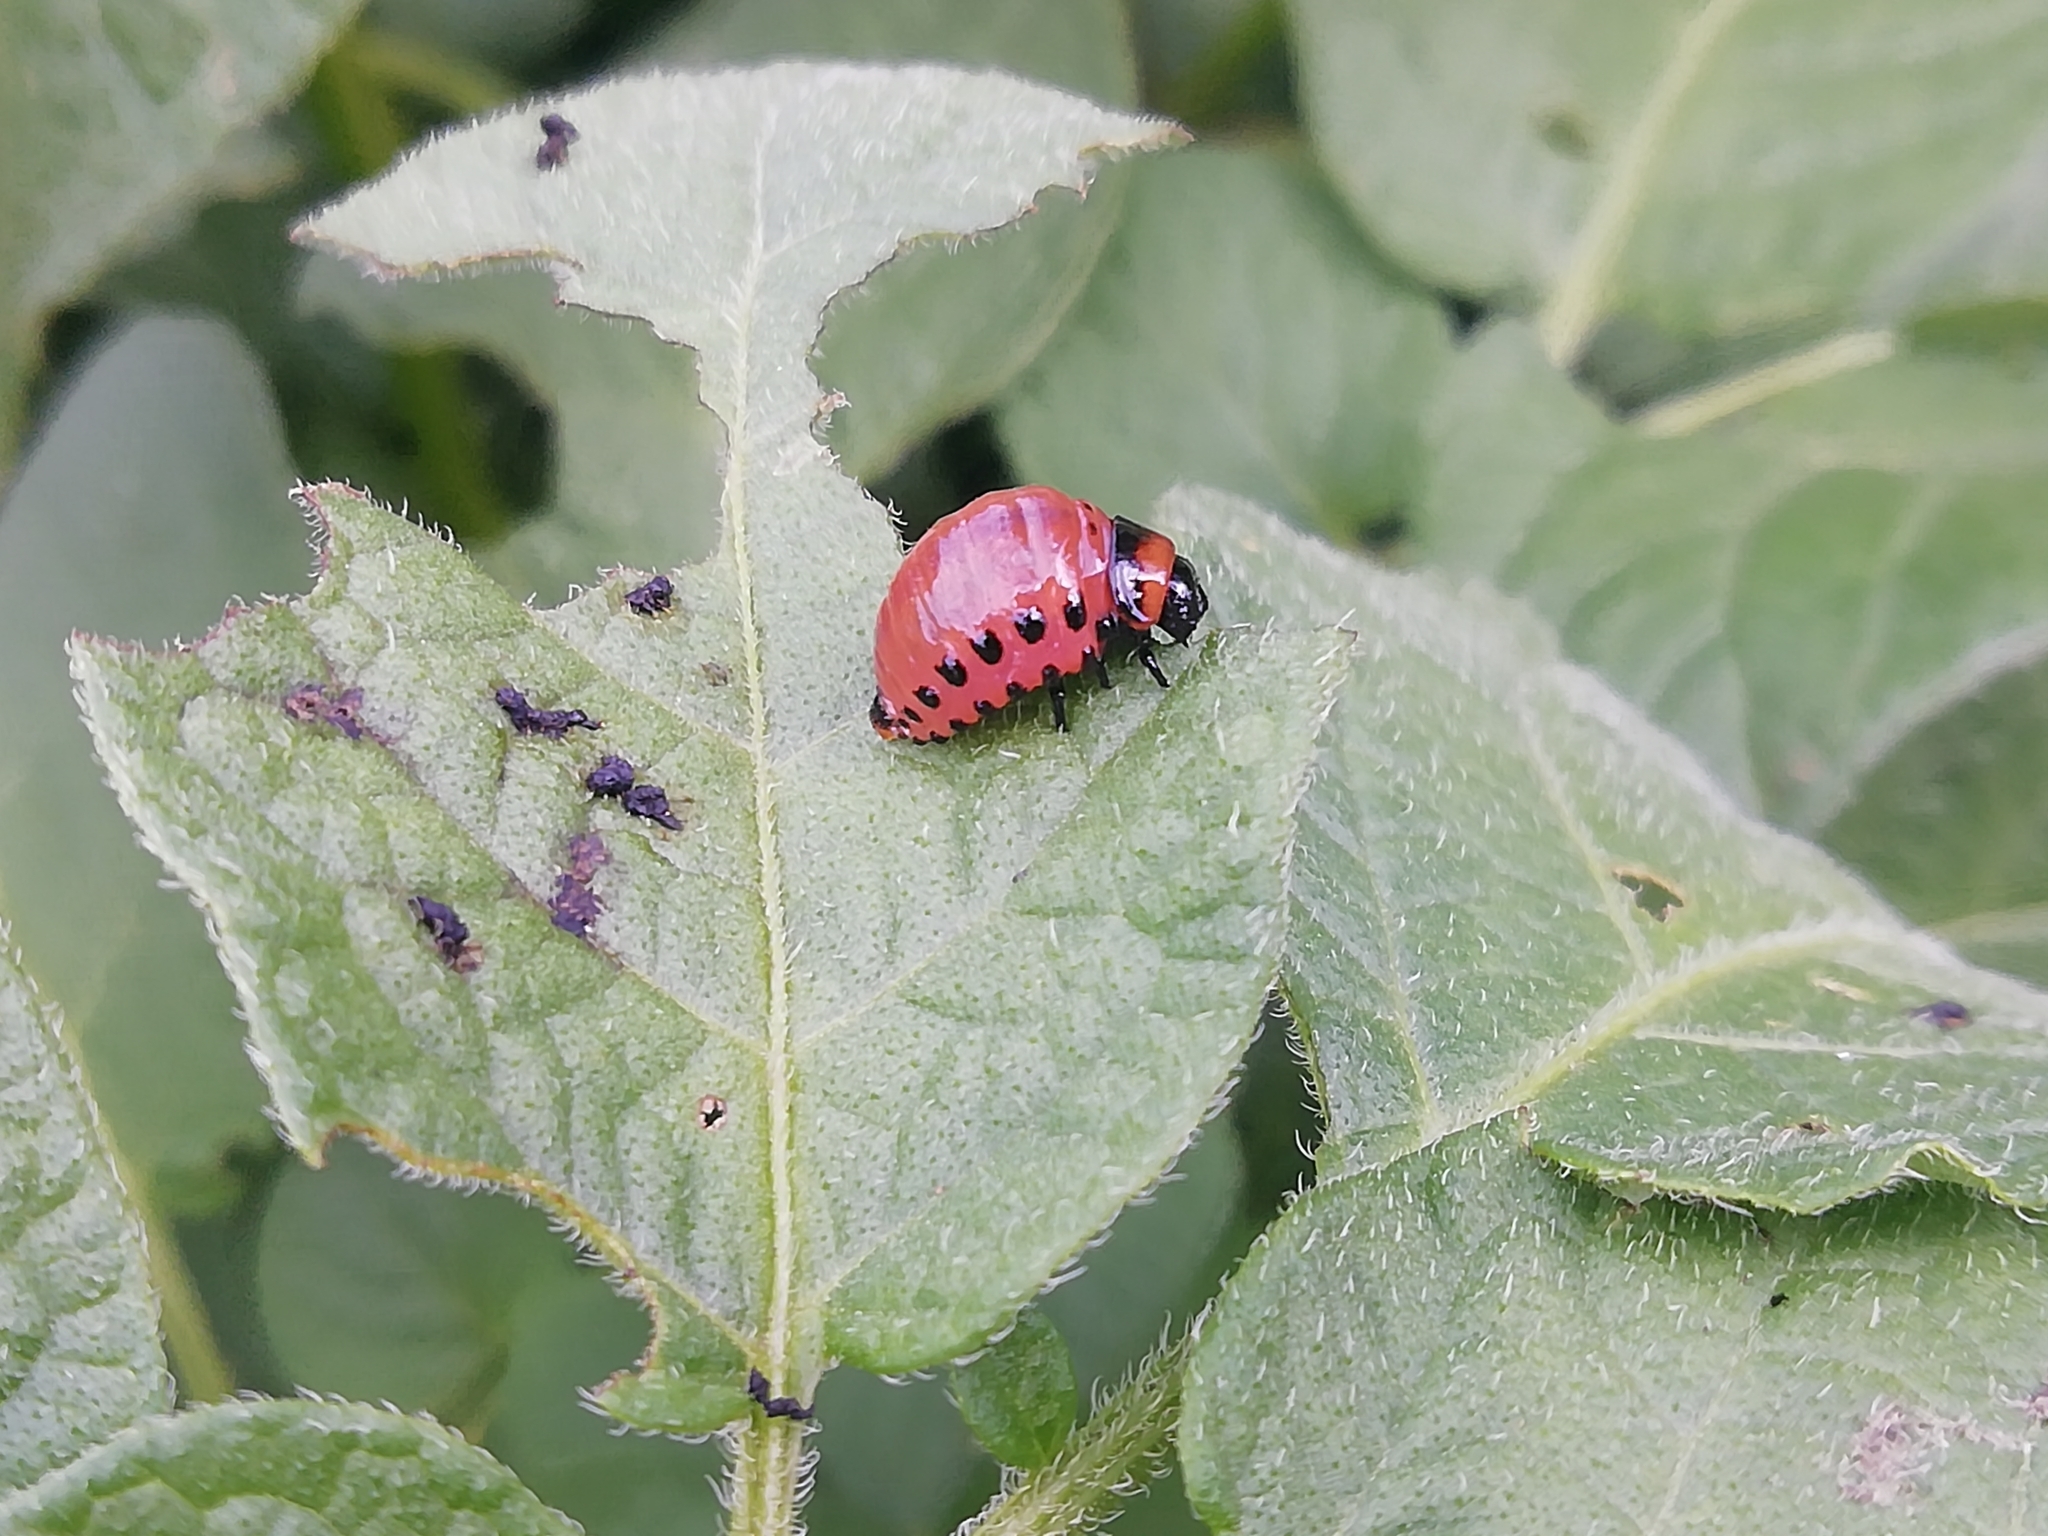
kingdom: Animalia
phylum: Arthropoda
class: Insecta
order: Coleoptera
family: Chrysomelidae
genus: Leptinotarsa
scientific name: Leptinotarsa decemlineata
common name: Colorado potato beetle
